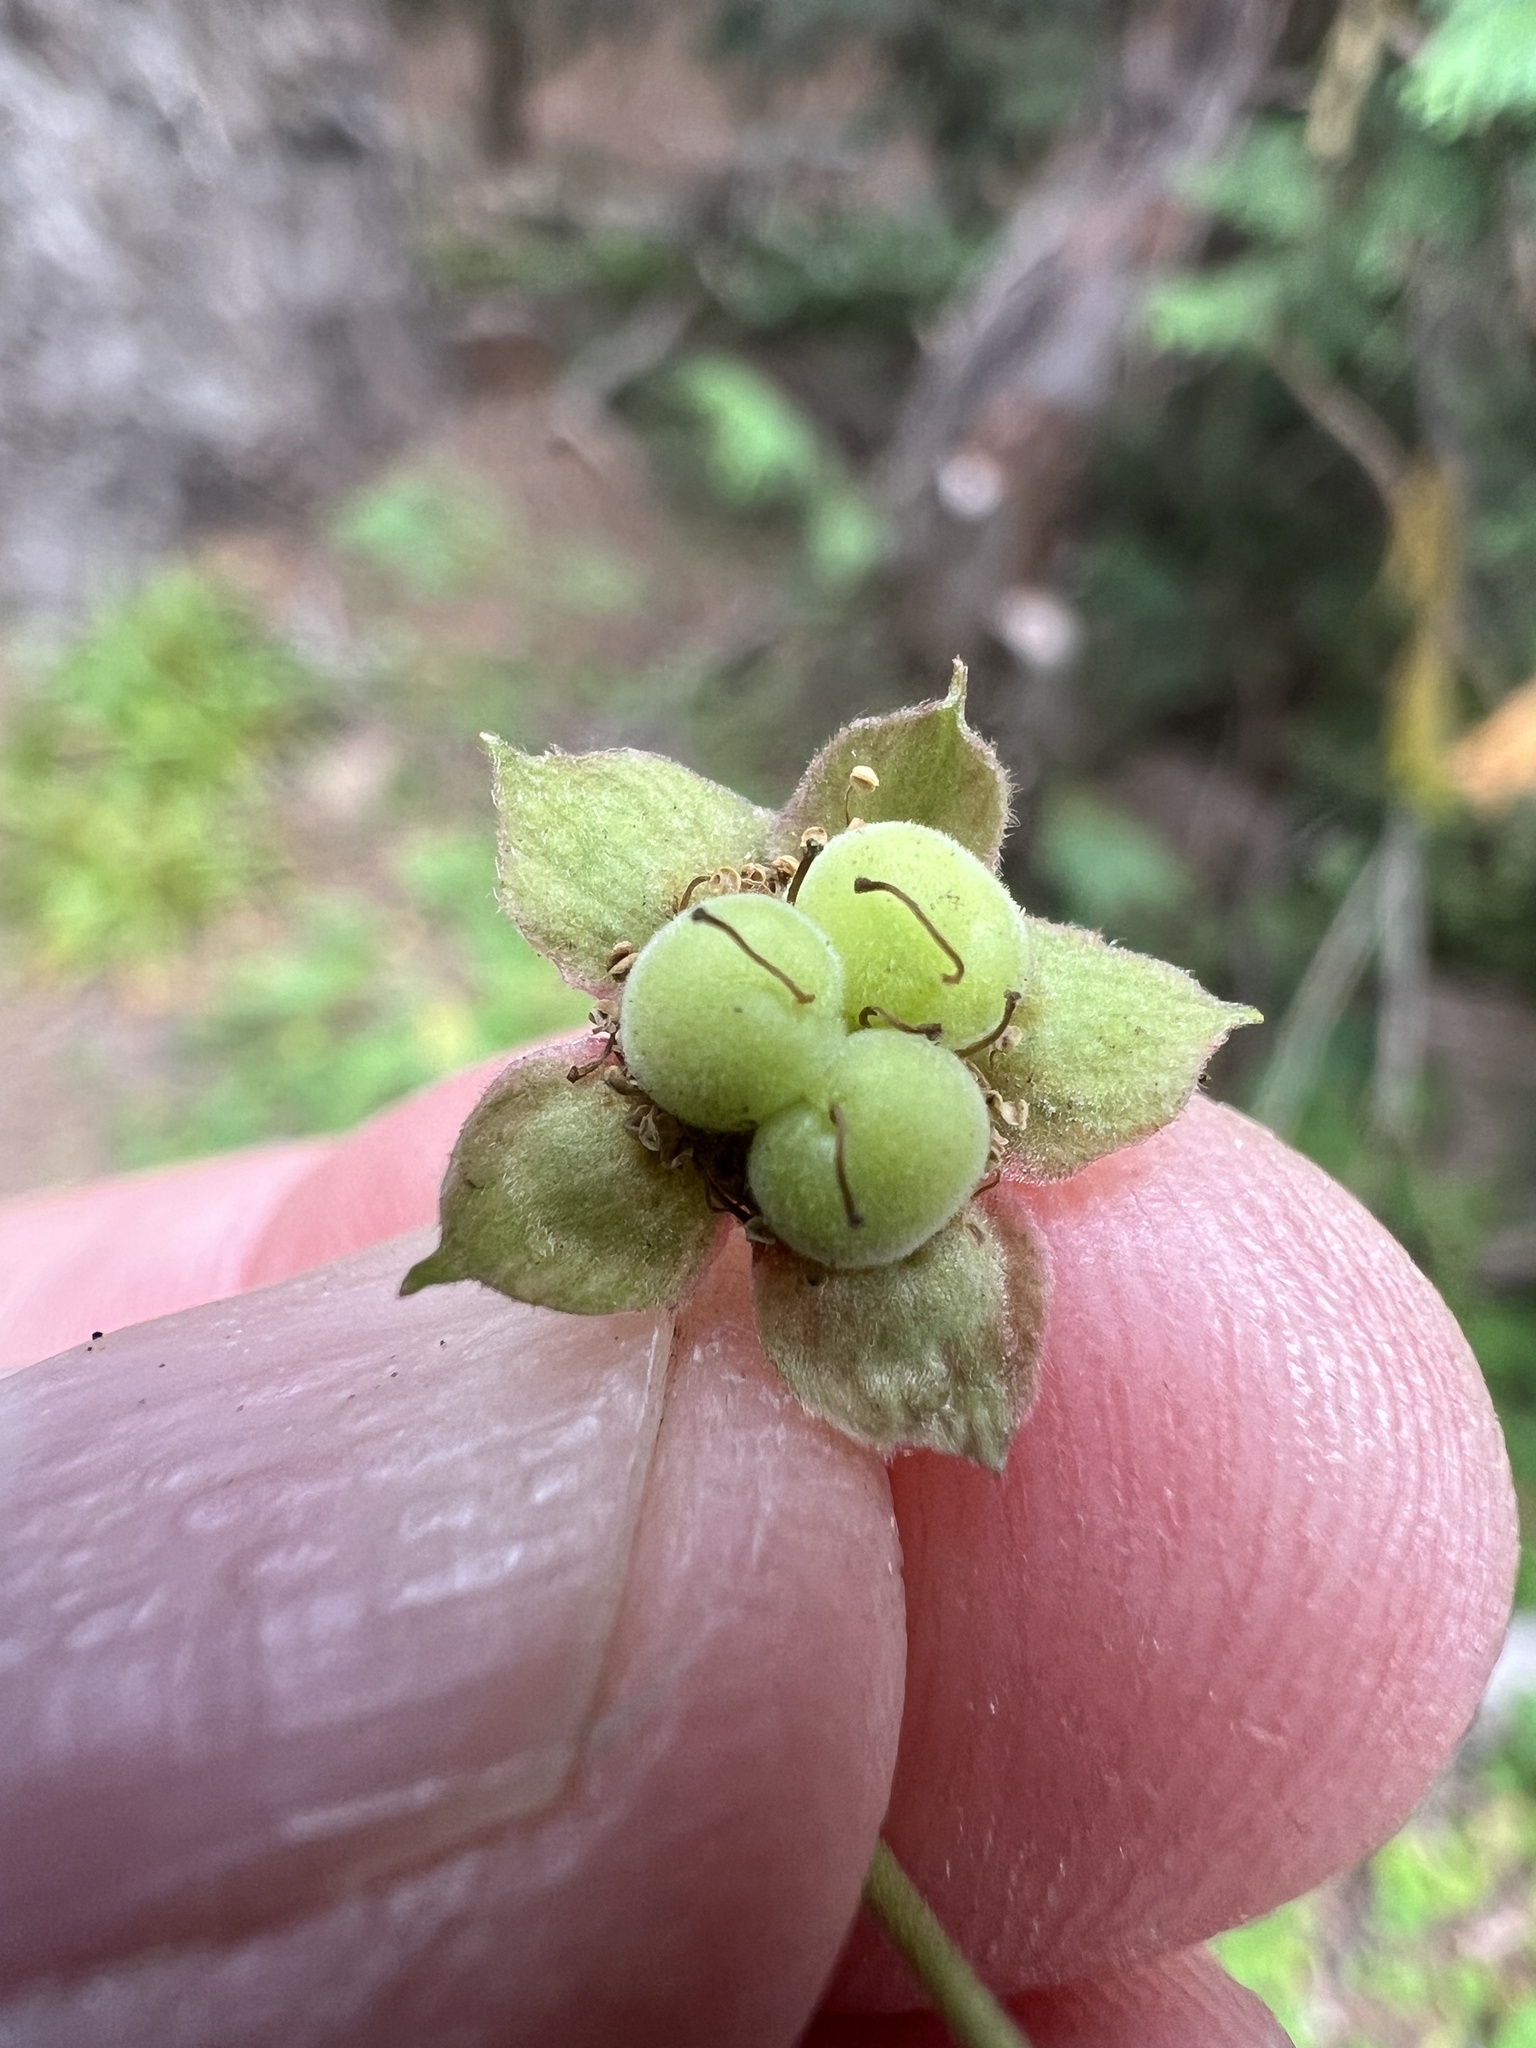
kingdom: Plantae
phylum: Tracheophyta
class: Magnoliopsida
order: Rosales
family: Rosaceae
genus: Rubus
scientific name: Rubus lasiococcus
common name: Dwarf bramble
